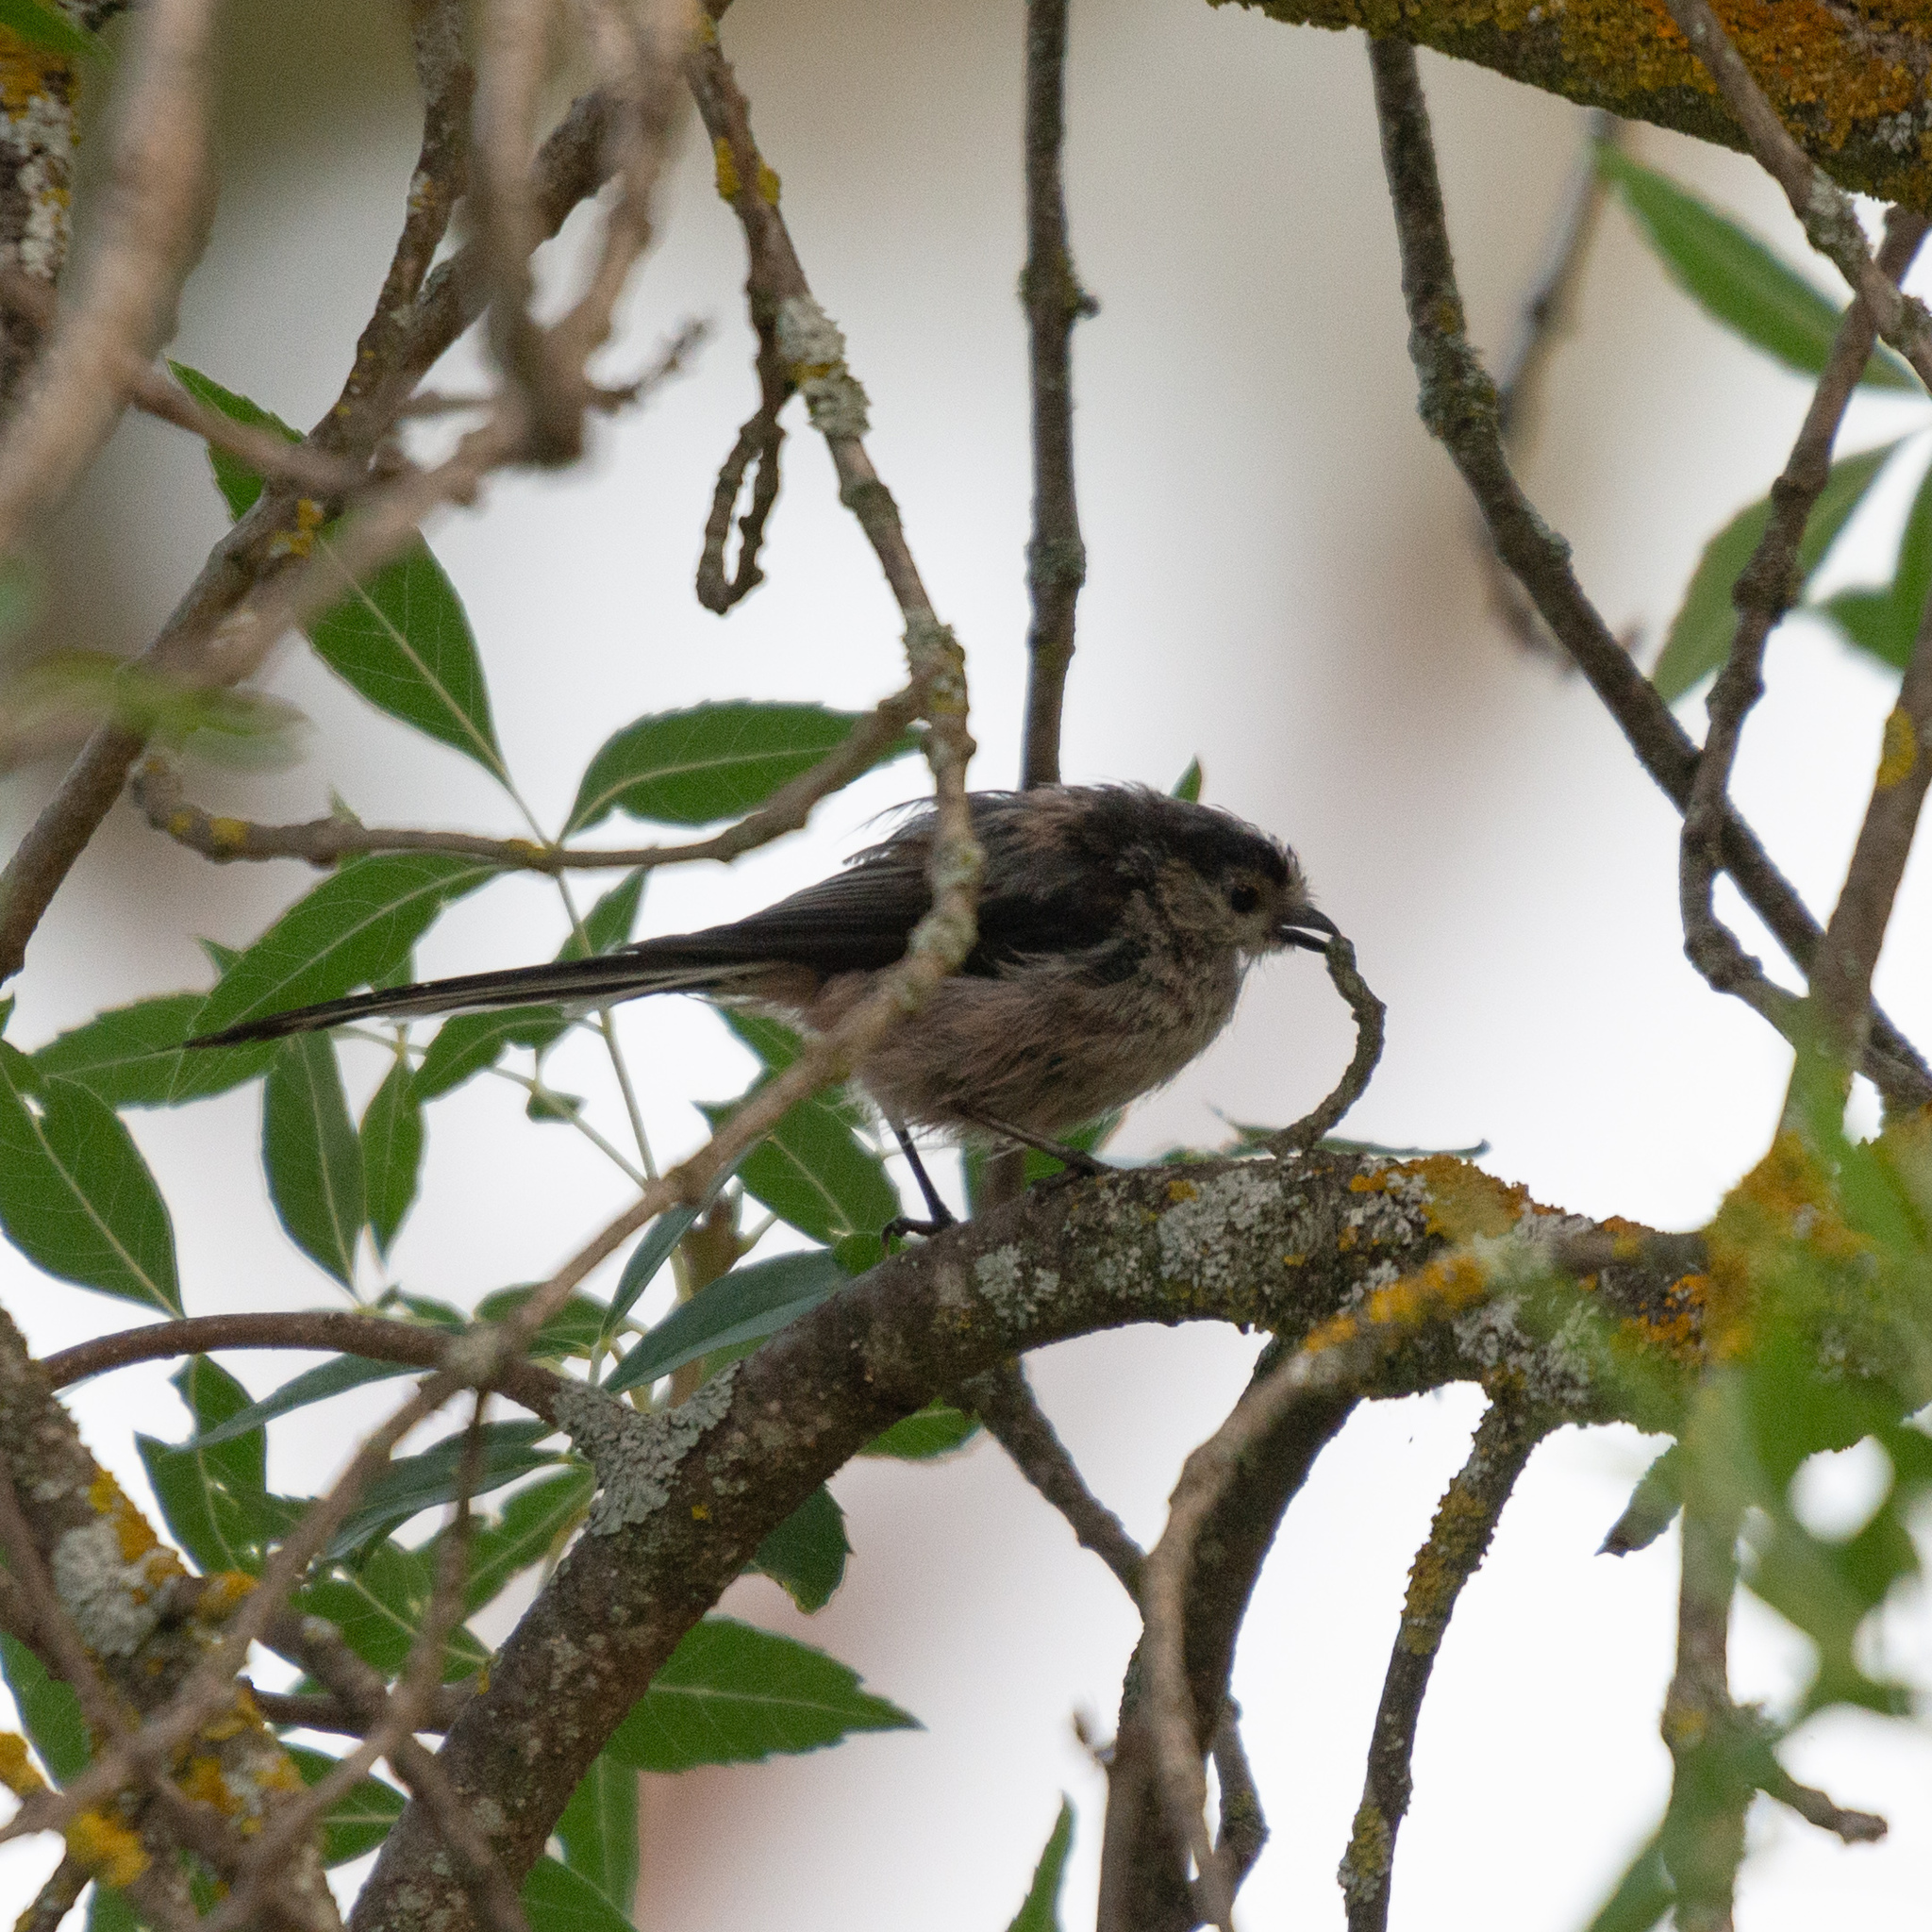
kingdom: Animalia
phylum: Chordata
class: Aves
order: Passeriformes
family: Aegithalidae
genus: Aegithalos
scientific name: Aegithalos caudatus
